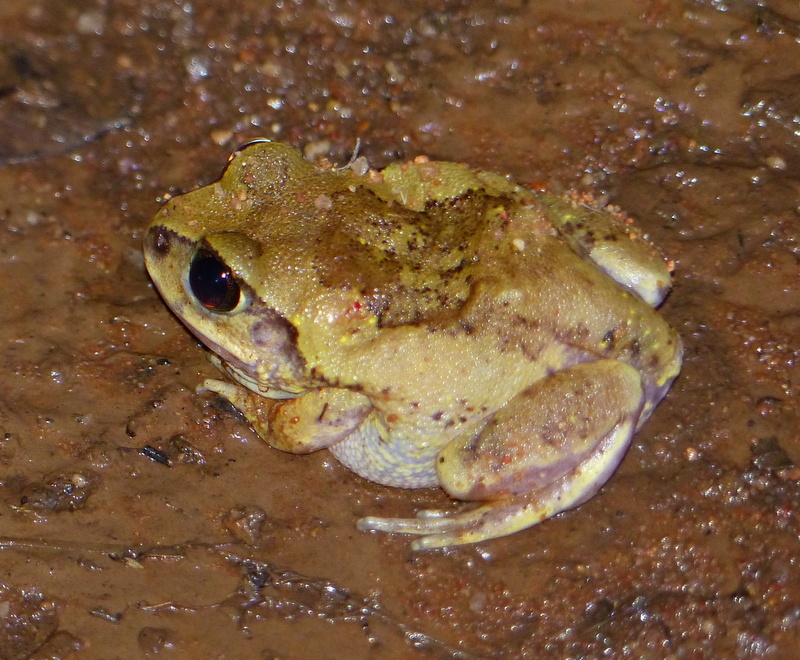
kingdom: Animalia
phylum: Chordata
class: Amphibia
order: Anura
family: Arthroleptidae
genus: Leptopelis
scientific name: Leptopelis bocagii
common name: Bocage's frog
